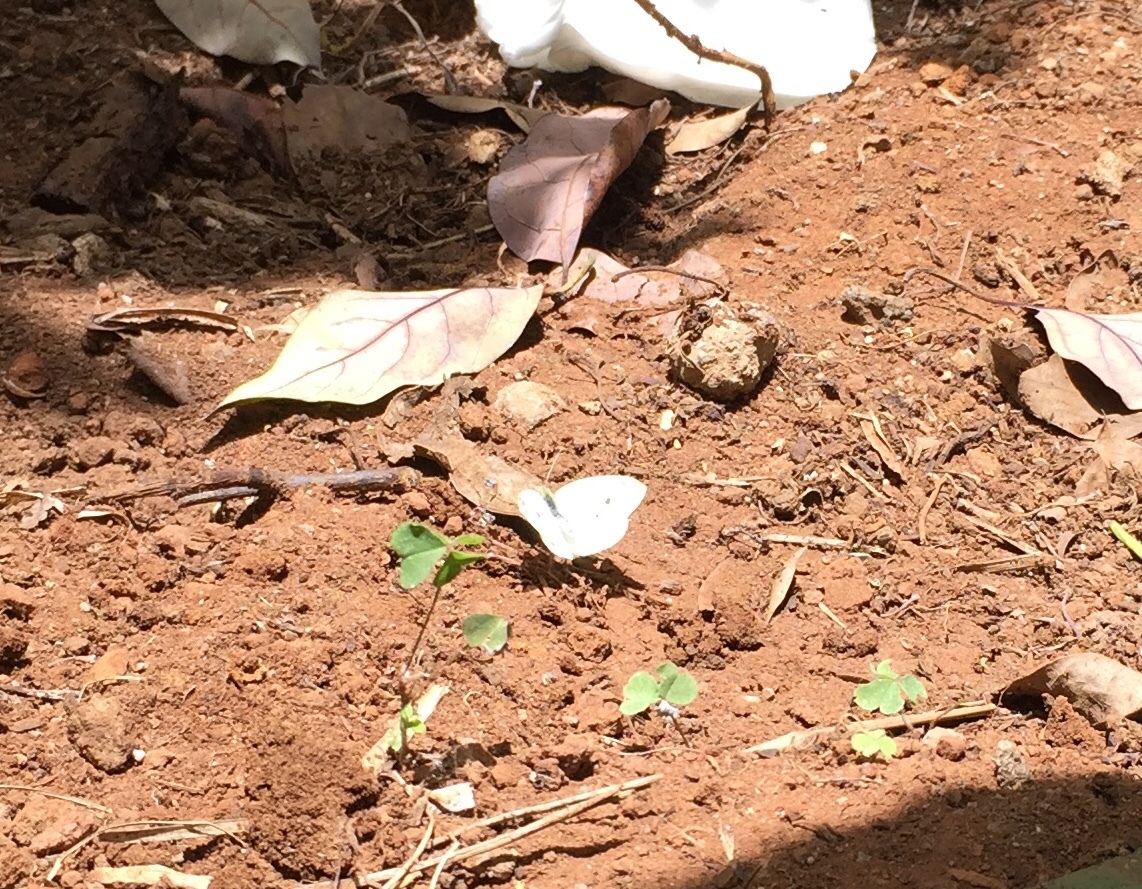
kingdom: Animalia
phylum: Arthropoda
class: Insecta
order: Lepidoptera
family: Pieridae
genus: Pieris
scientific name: Pieris rapae
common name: Small white
